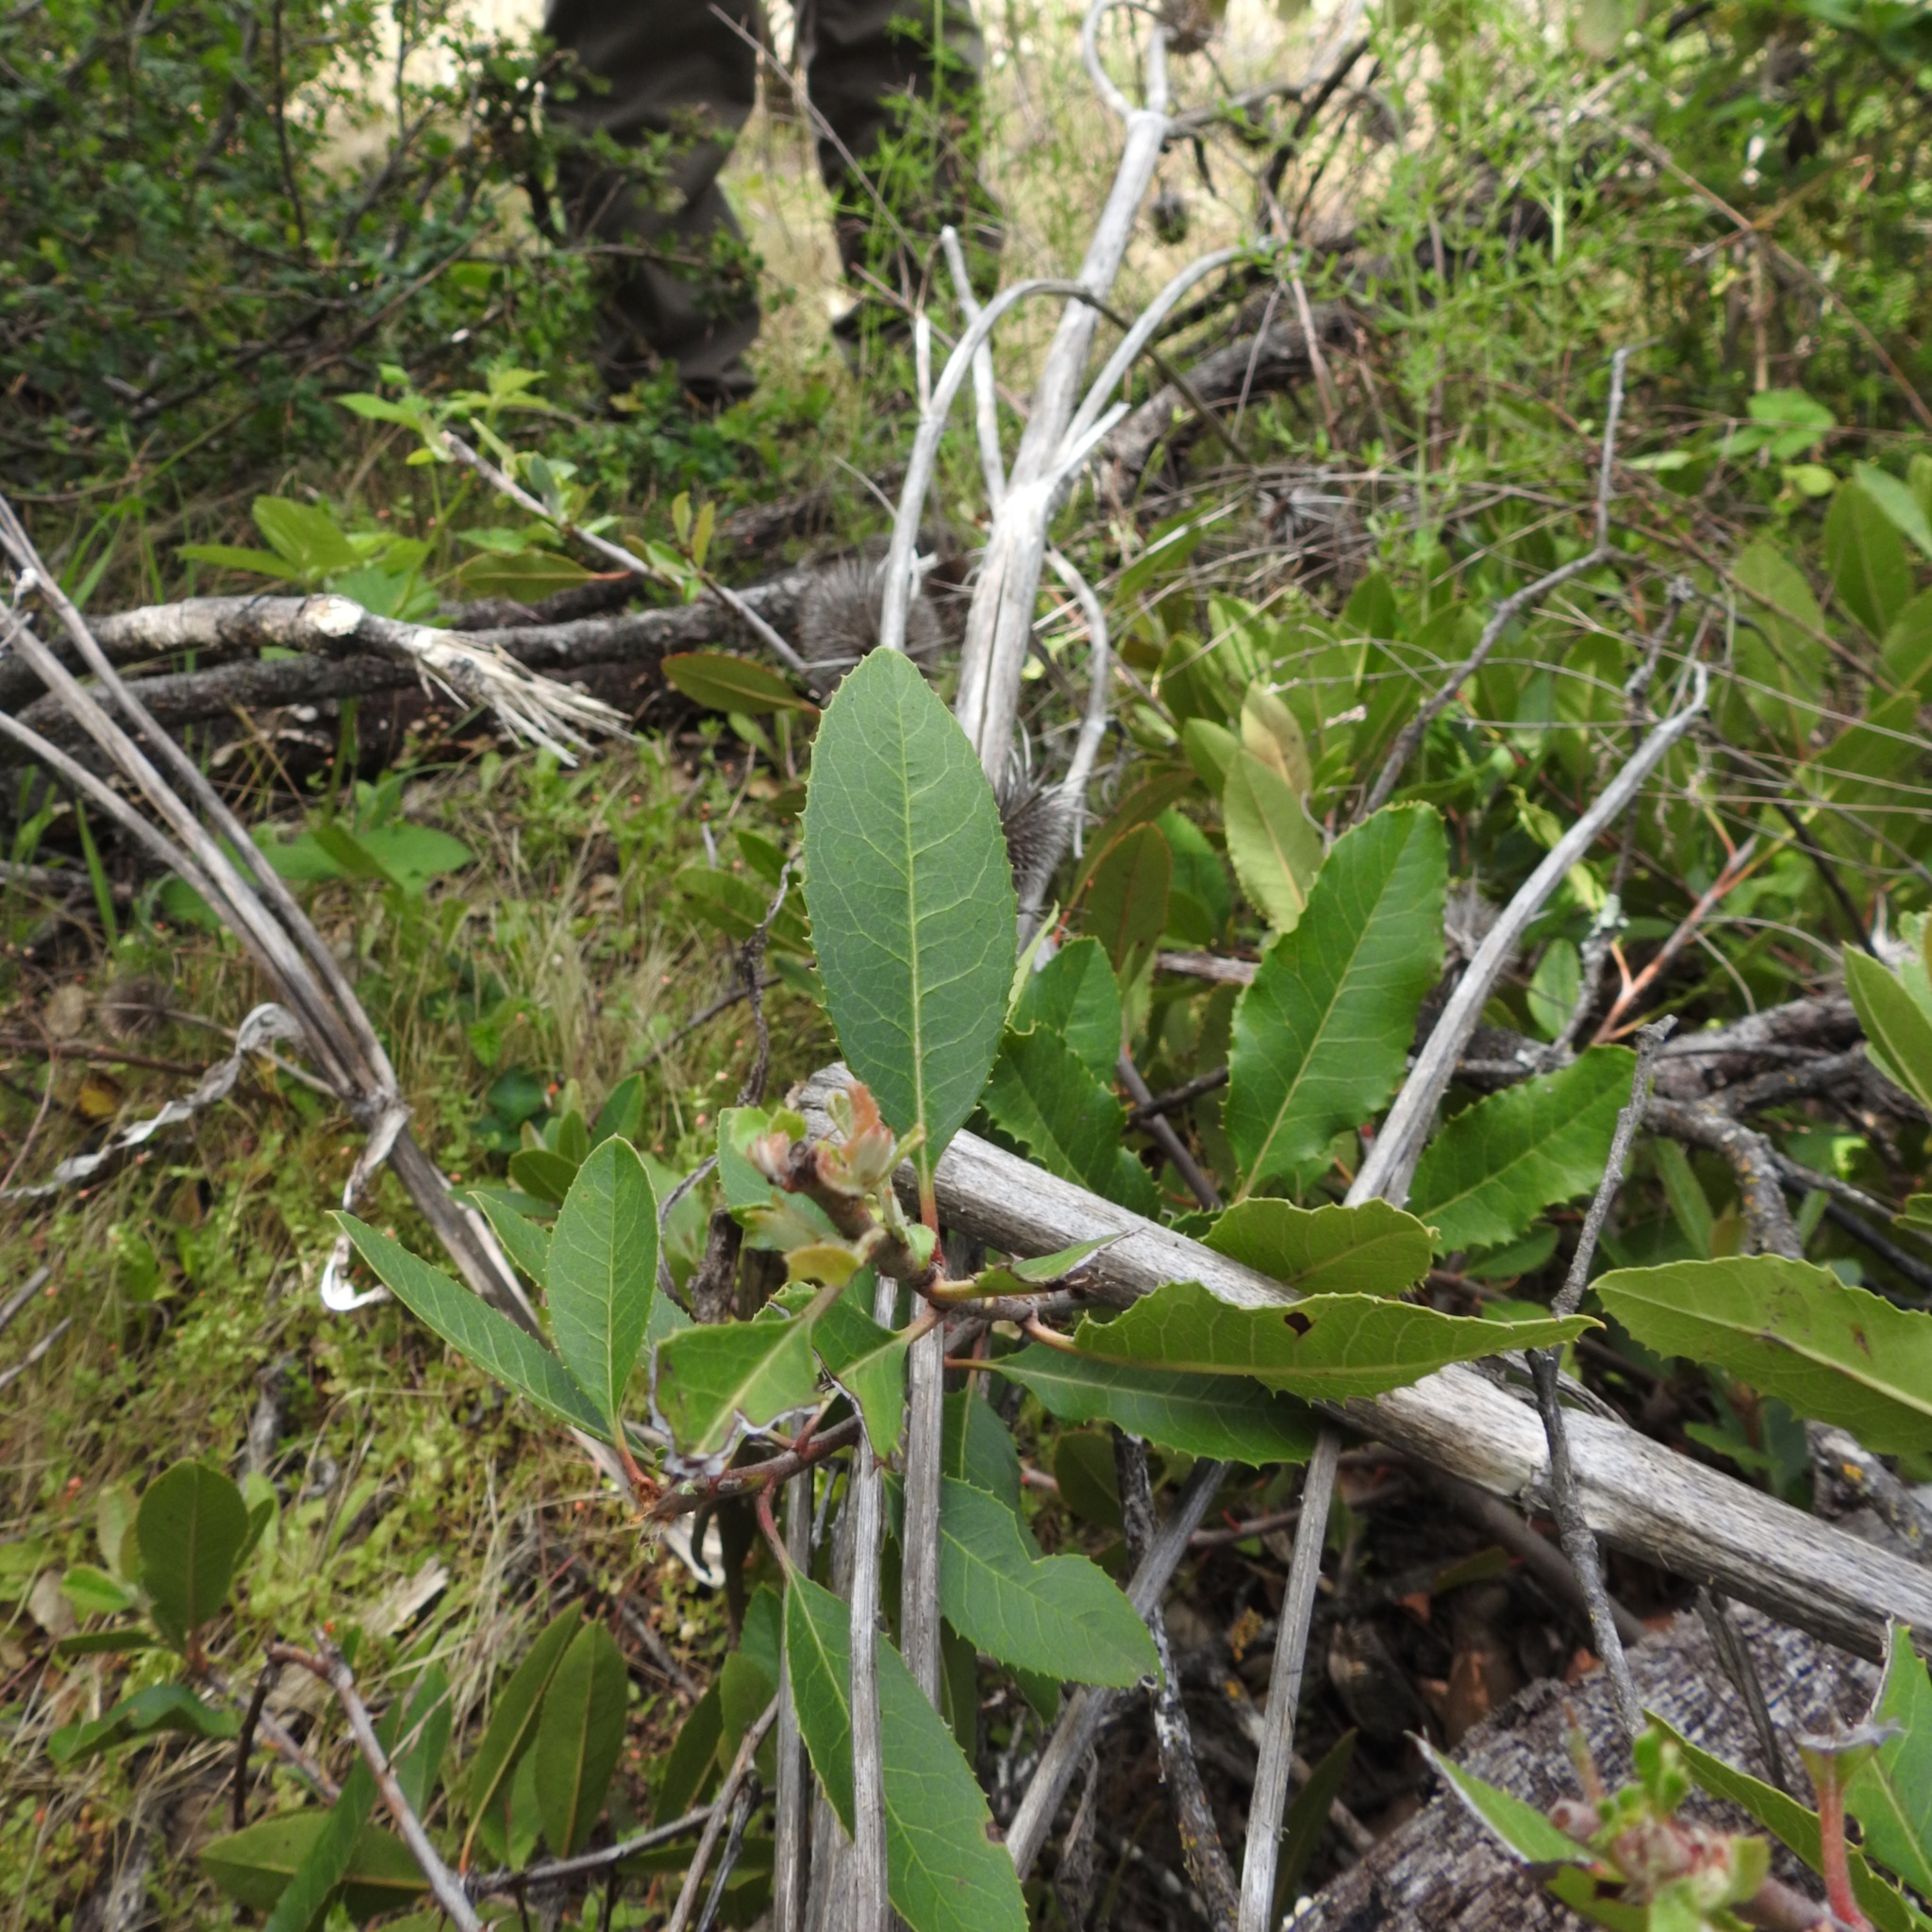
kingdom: Plantae
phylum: Tracheophyta
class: Magnoliopsida
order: Rosales
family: Rosaceae
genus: Heteromeles
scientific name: Heteromeles arbutifolia
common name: California-holly
